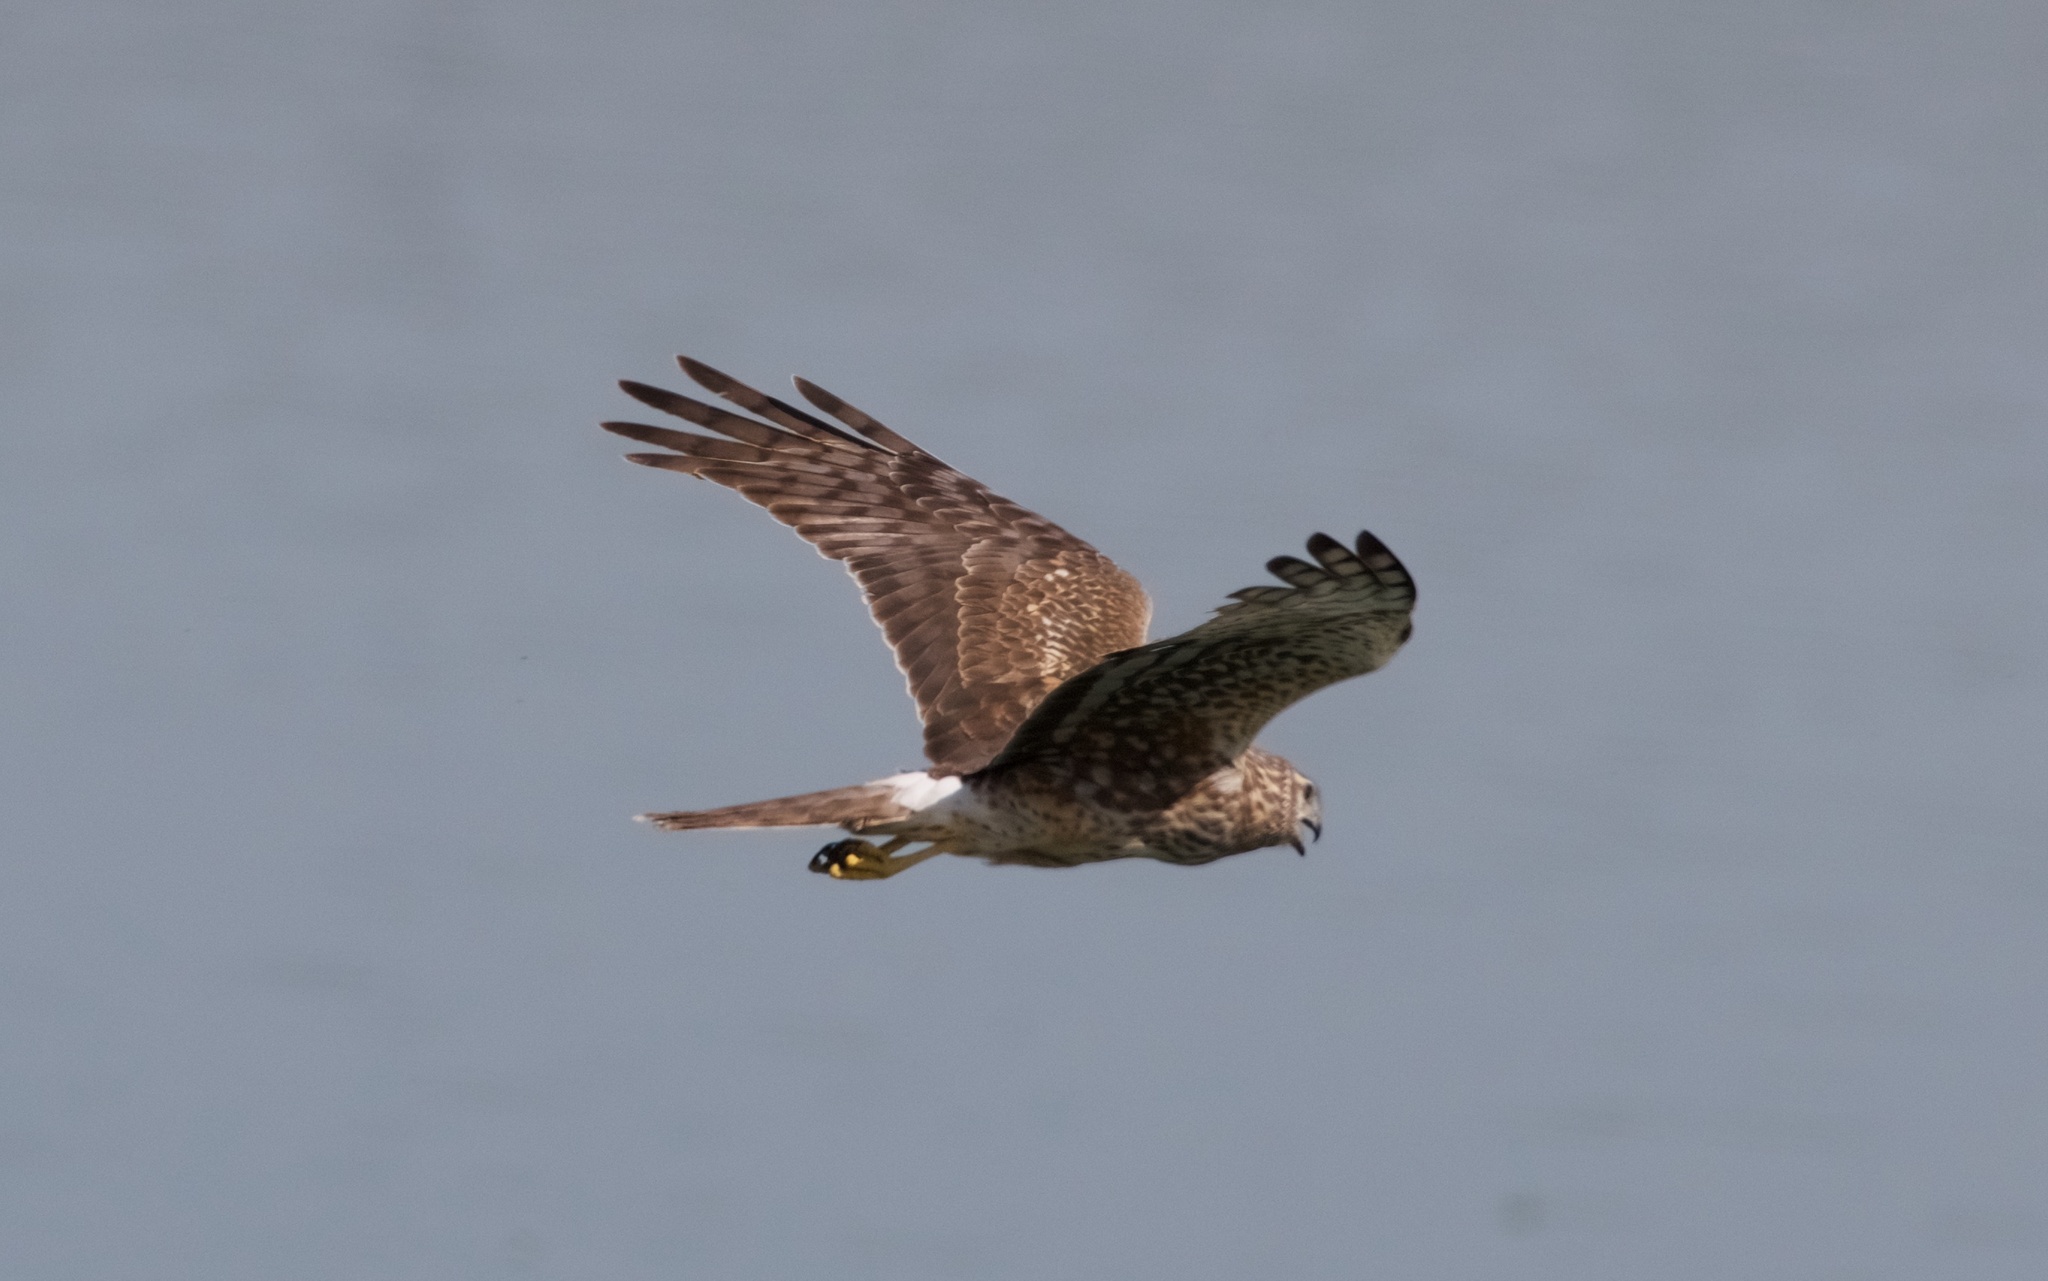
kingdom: Animalia
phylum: Chordata
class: Aves
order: Accipitriformes
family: Accipitridae
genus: Circus
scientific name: Circus cyaneus
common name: Hen harrier
